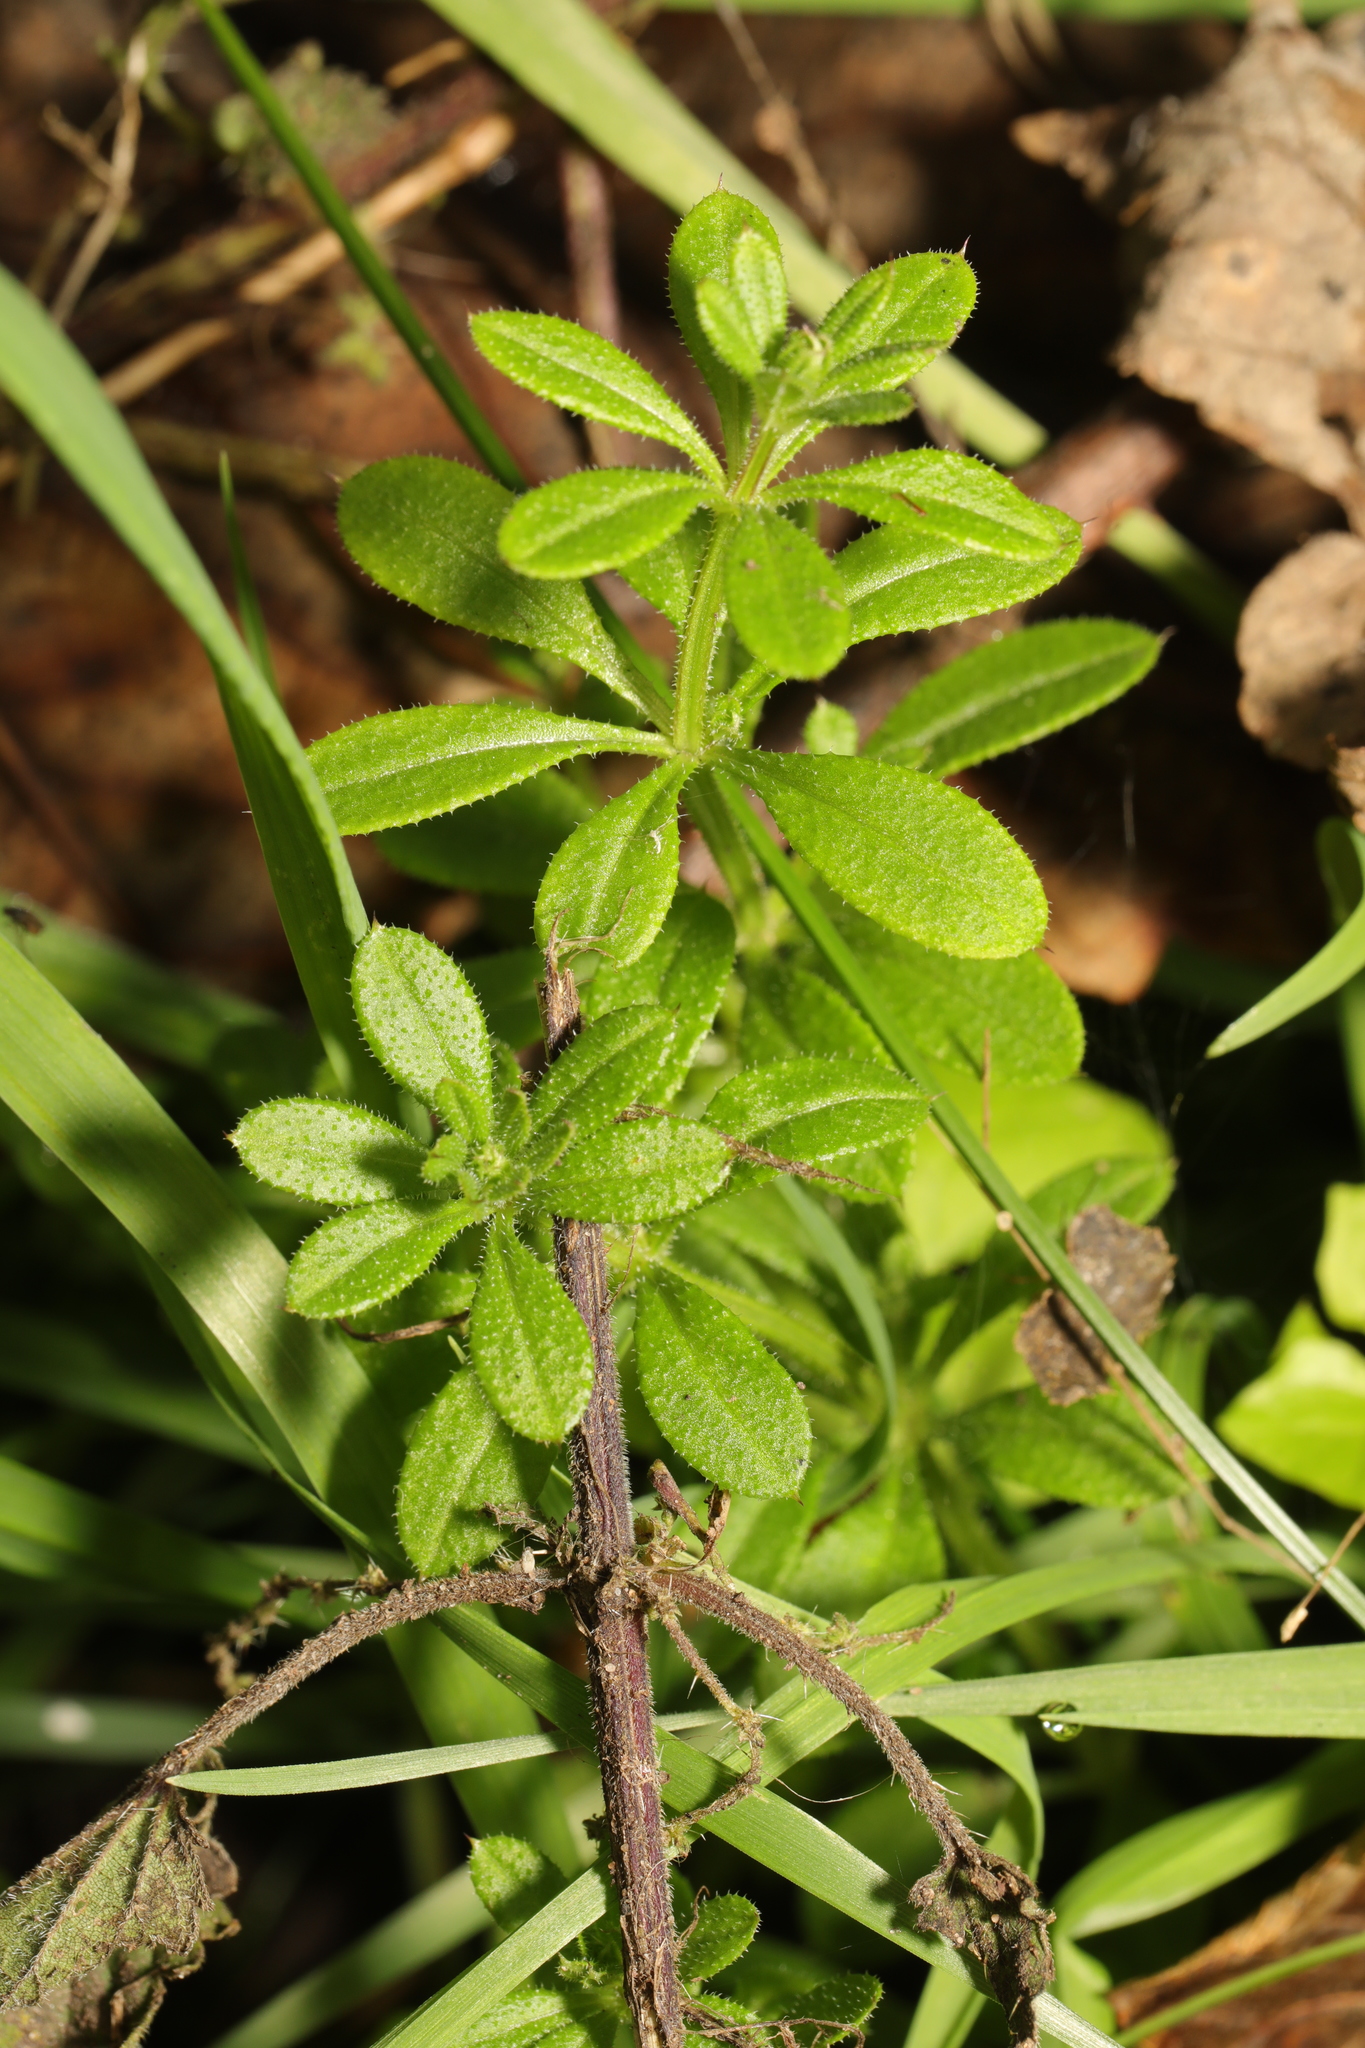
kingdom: Plantae
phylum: Tracheophyta
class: Magnoliopsida
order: Gentianales
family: Rubiaceae
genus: Galium
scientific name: Galium aparine
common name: Cleavers
